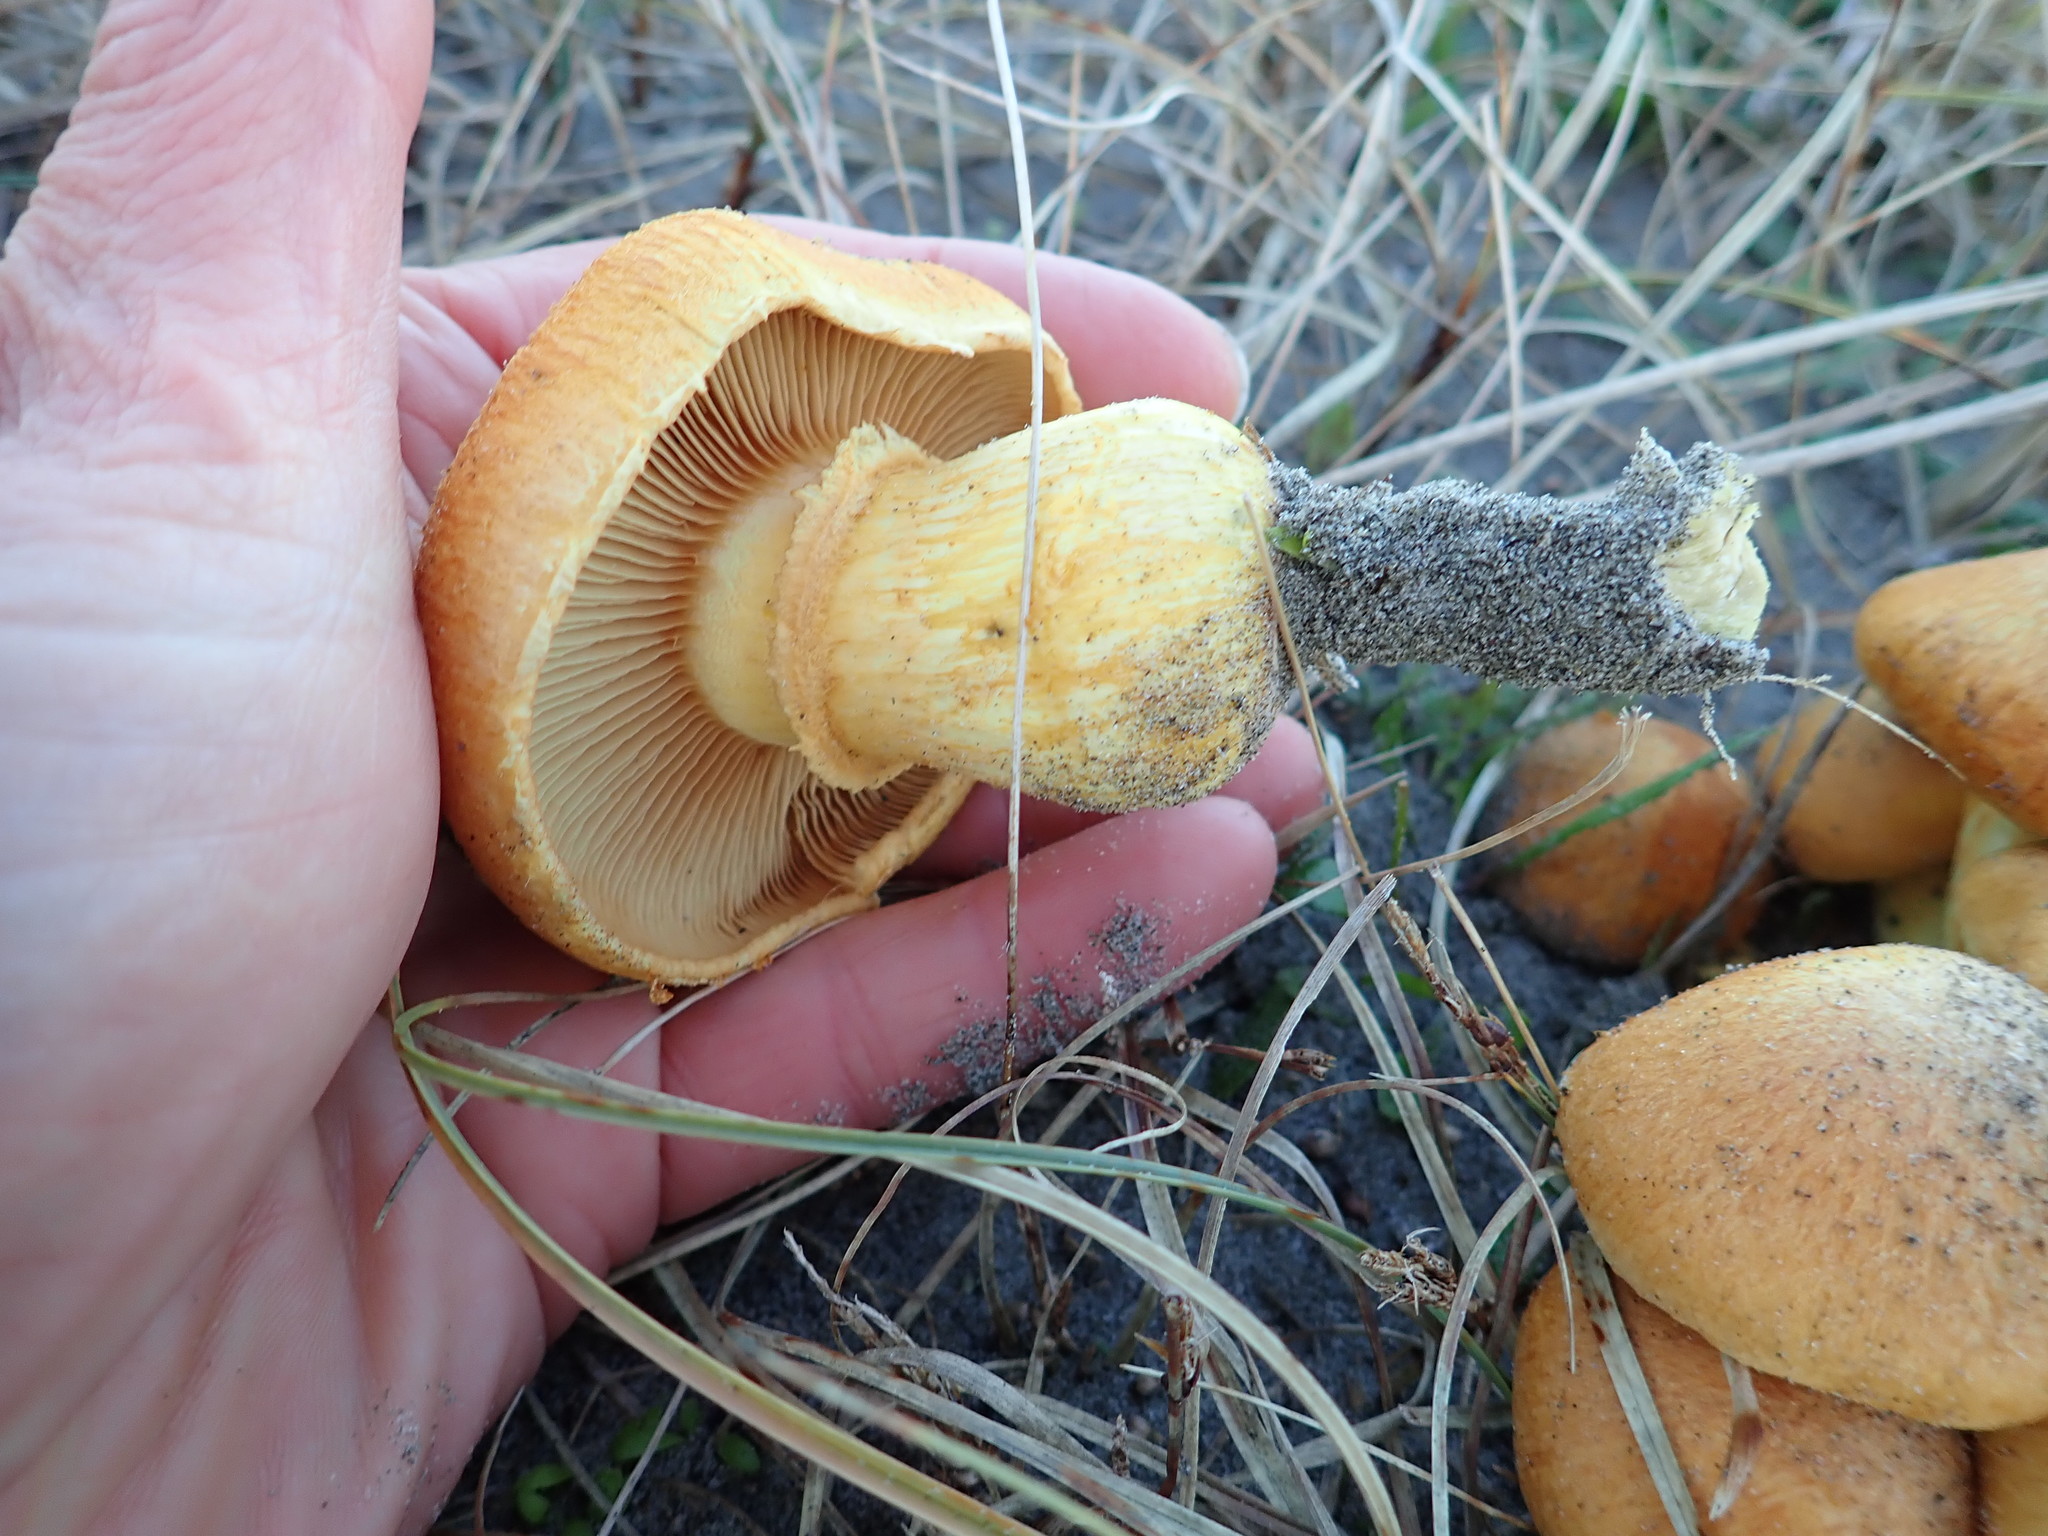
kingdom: Fungi
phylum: Basidiomycota
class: Agaricomycetes
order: Agaricales
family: Hymenogastraceae
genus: Gymnopilus
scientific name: Gymnopilus junonius
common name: Spectacular rustgill
